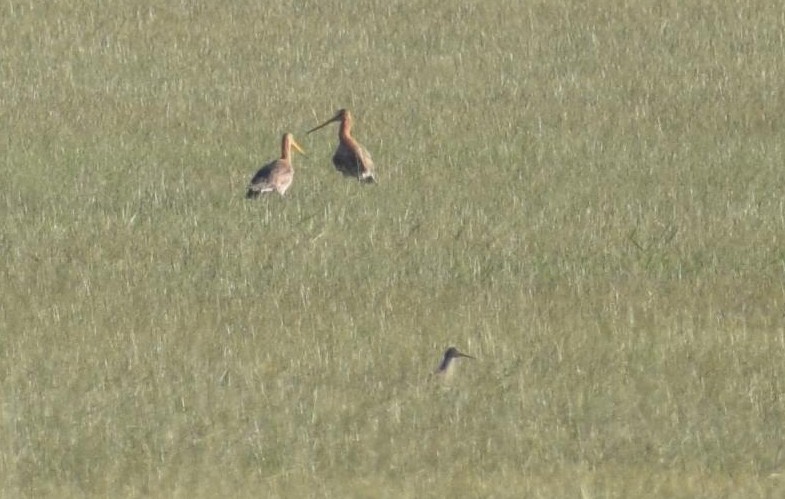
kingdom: Animalia
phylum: Chordata
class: Aves
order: Charadriiformes
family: Scolopacidae
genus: Limosa
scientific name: Limosa limosa
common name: Black-tailed godwit
